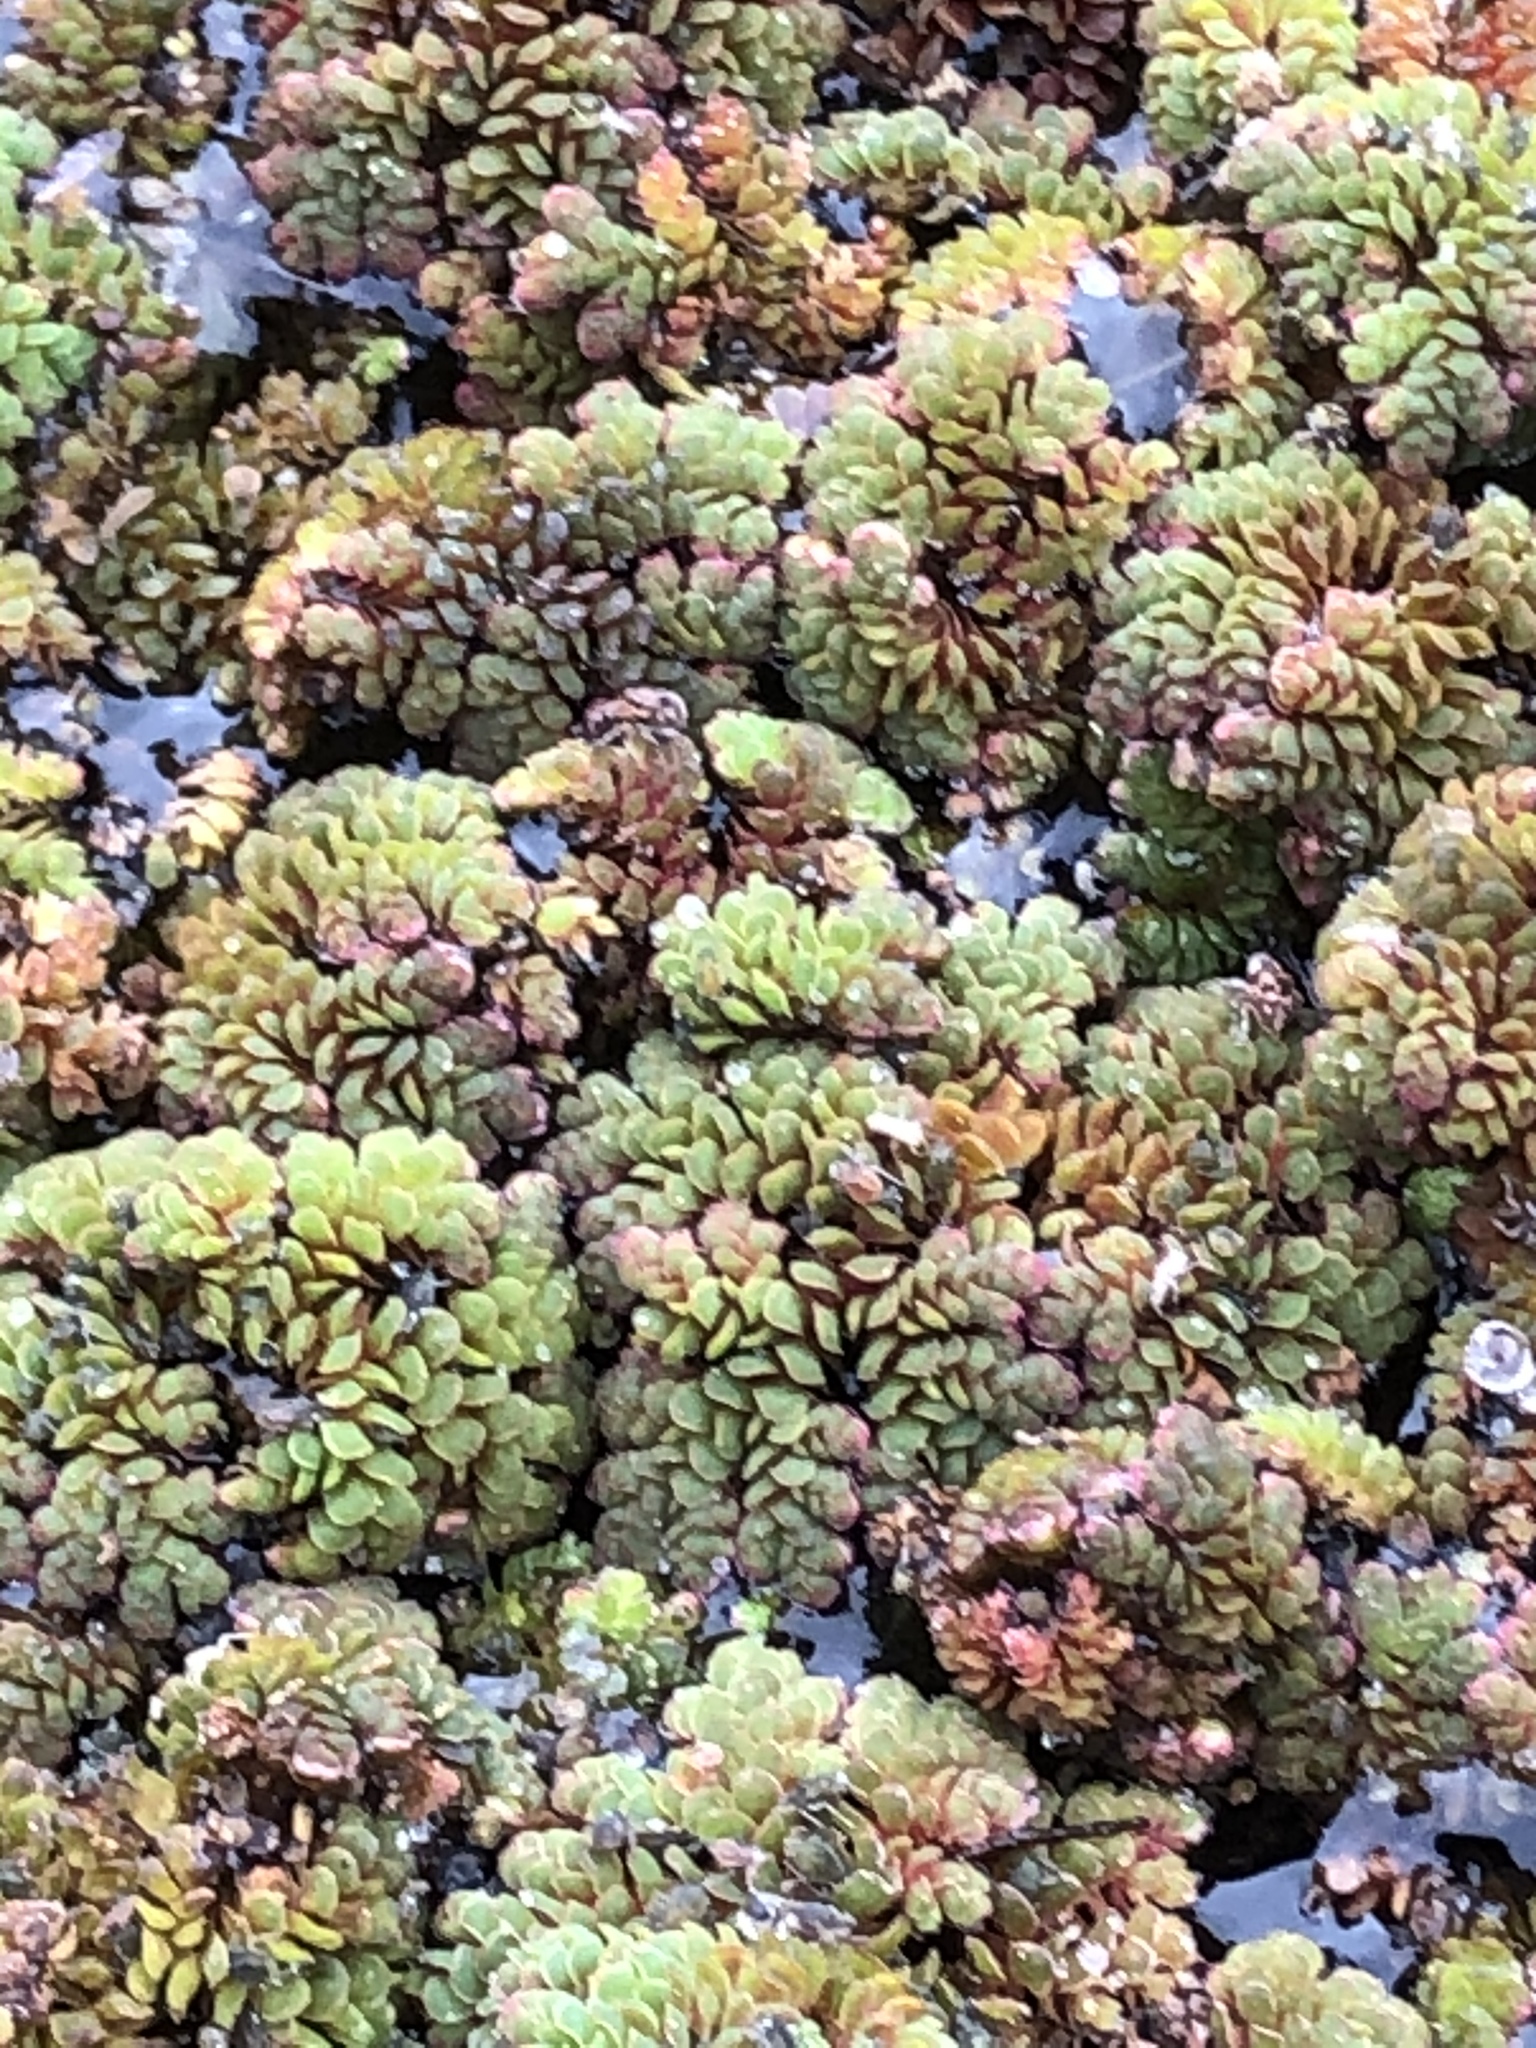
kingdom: Plantae
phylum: Tracheophyta
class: Polypodiopsida
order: Salviniales
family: Salviniaceae
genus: Azolla
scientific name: Azolla filiculoides
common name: Water fern
